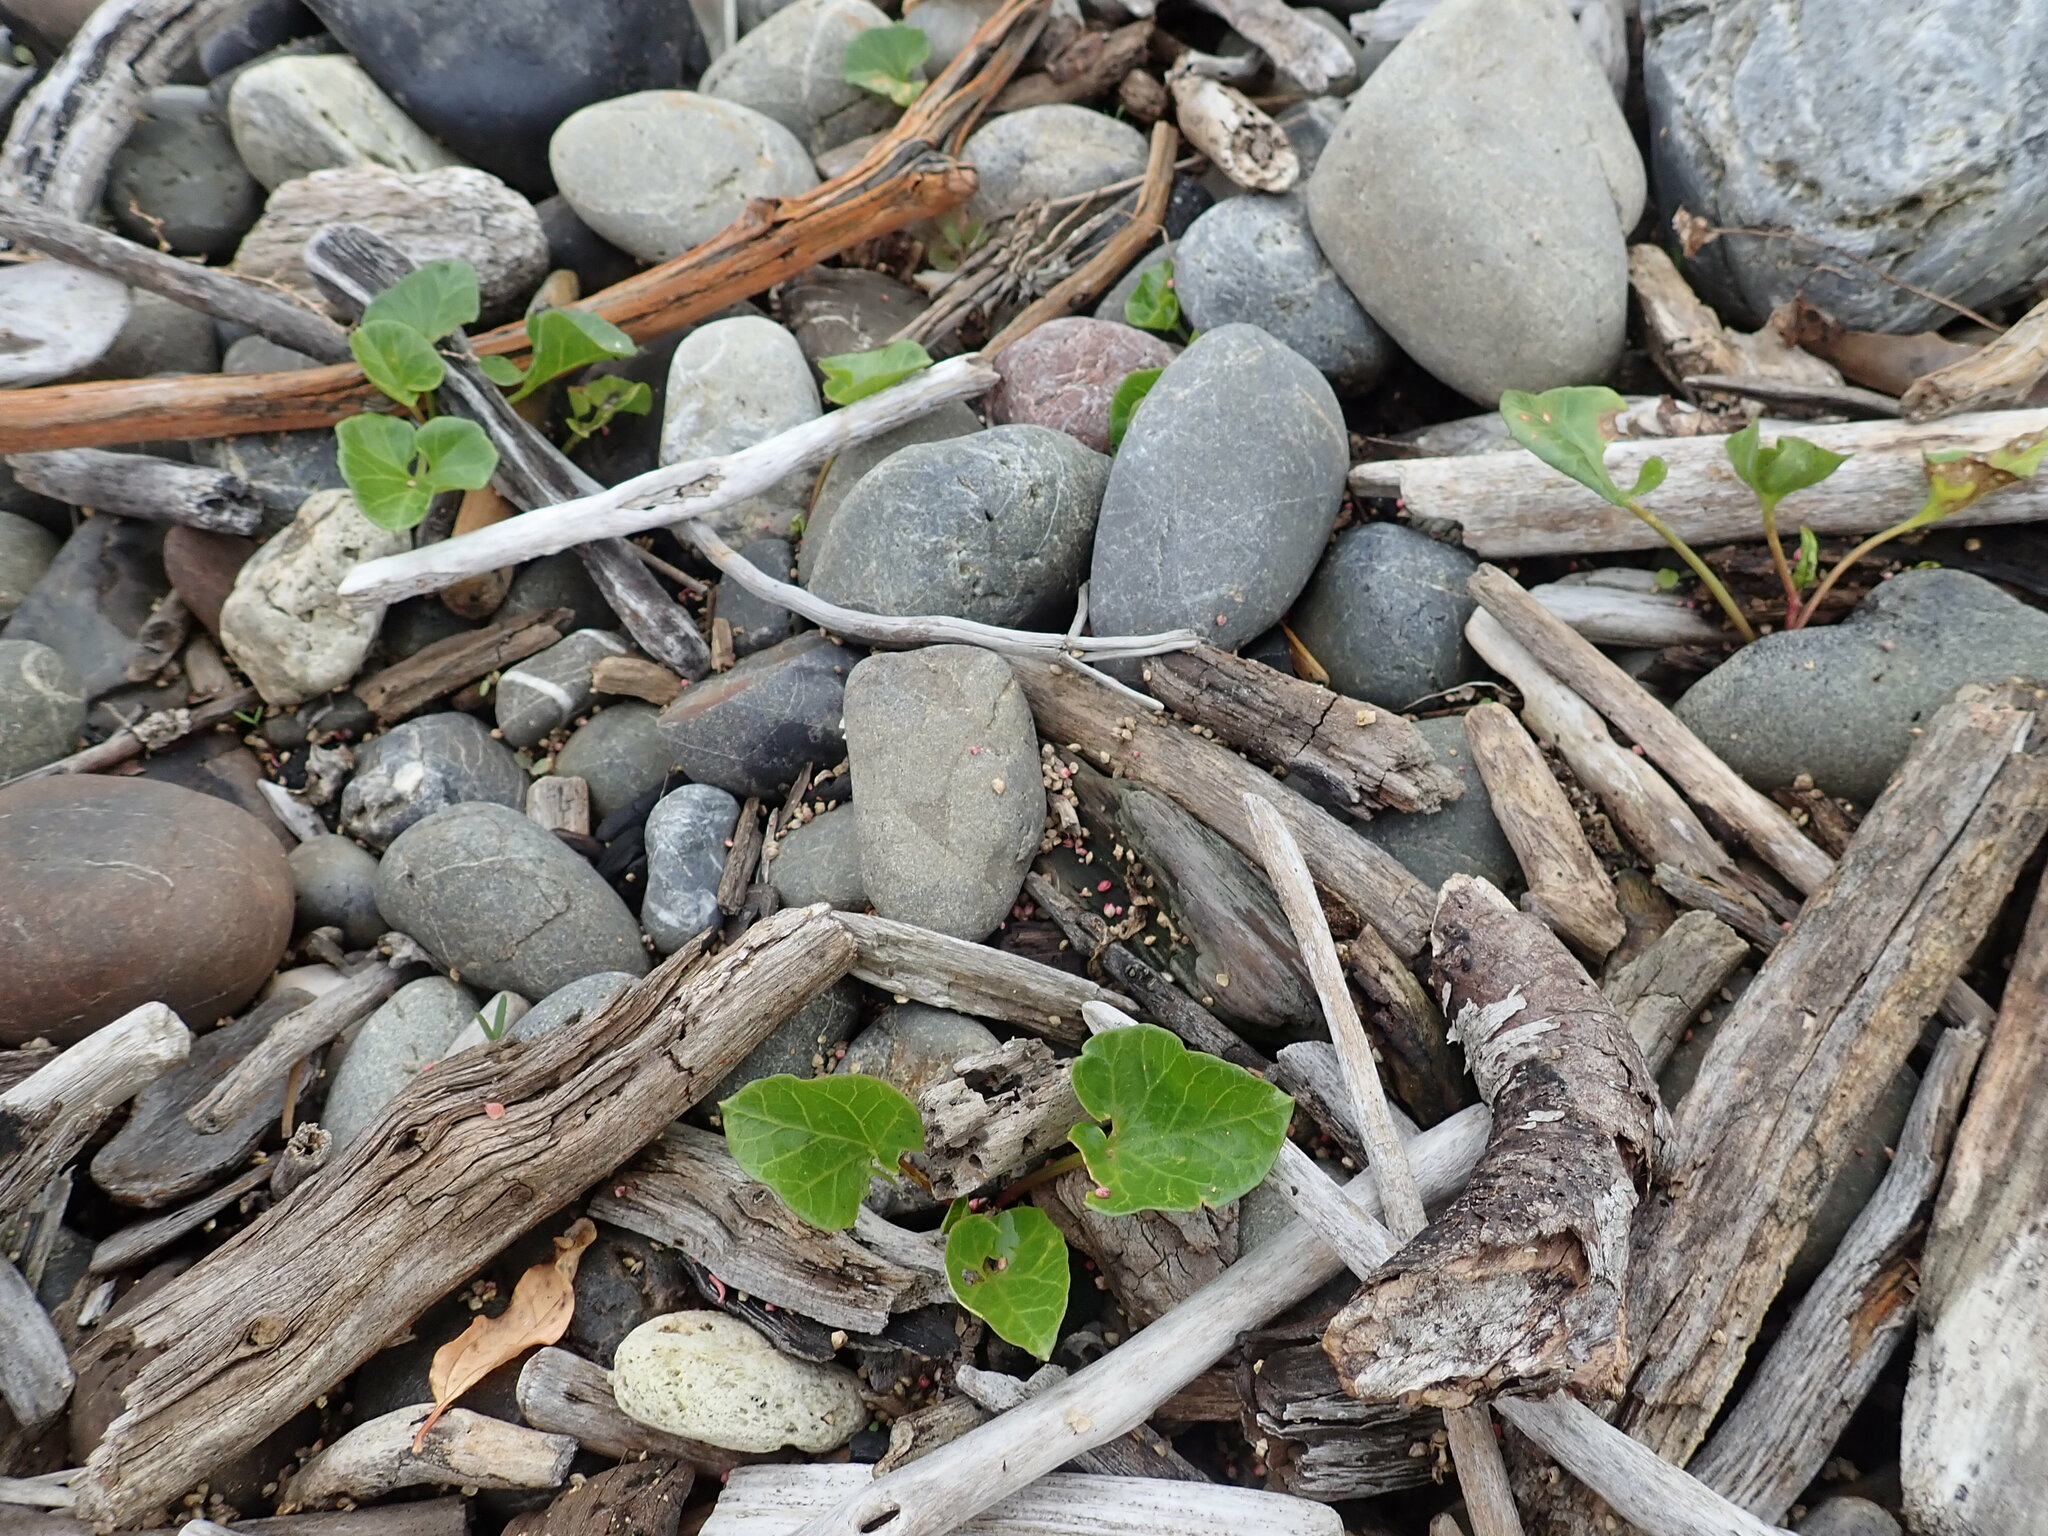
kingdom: Plantae
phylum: Tracheophyta
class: Magnoliopsida
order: Solanales
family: Convolvulaceae
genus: Calystegia
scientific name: Calystegia soldanella
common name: Sea bindweed
